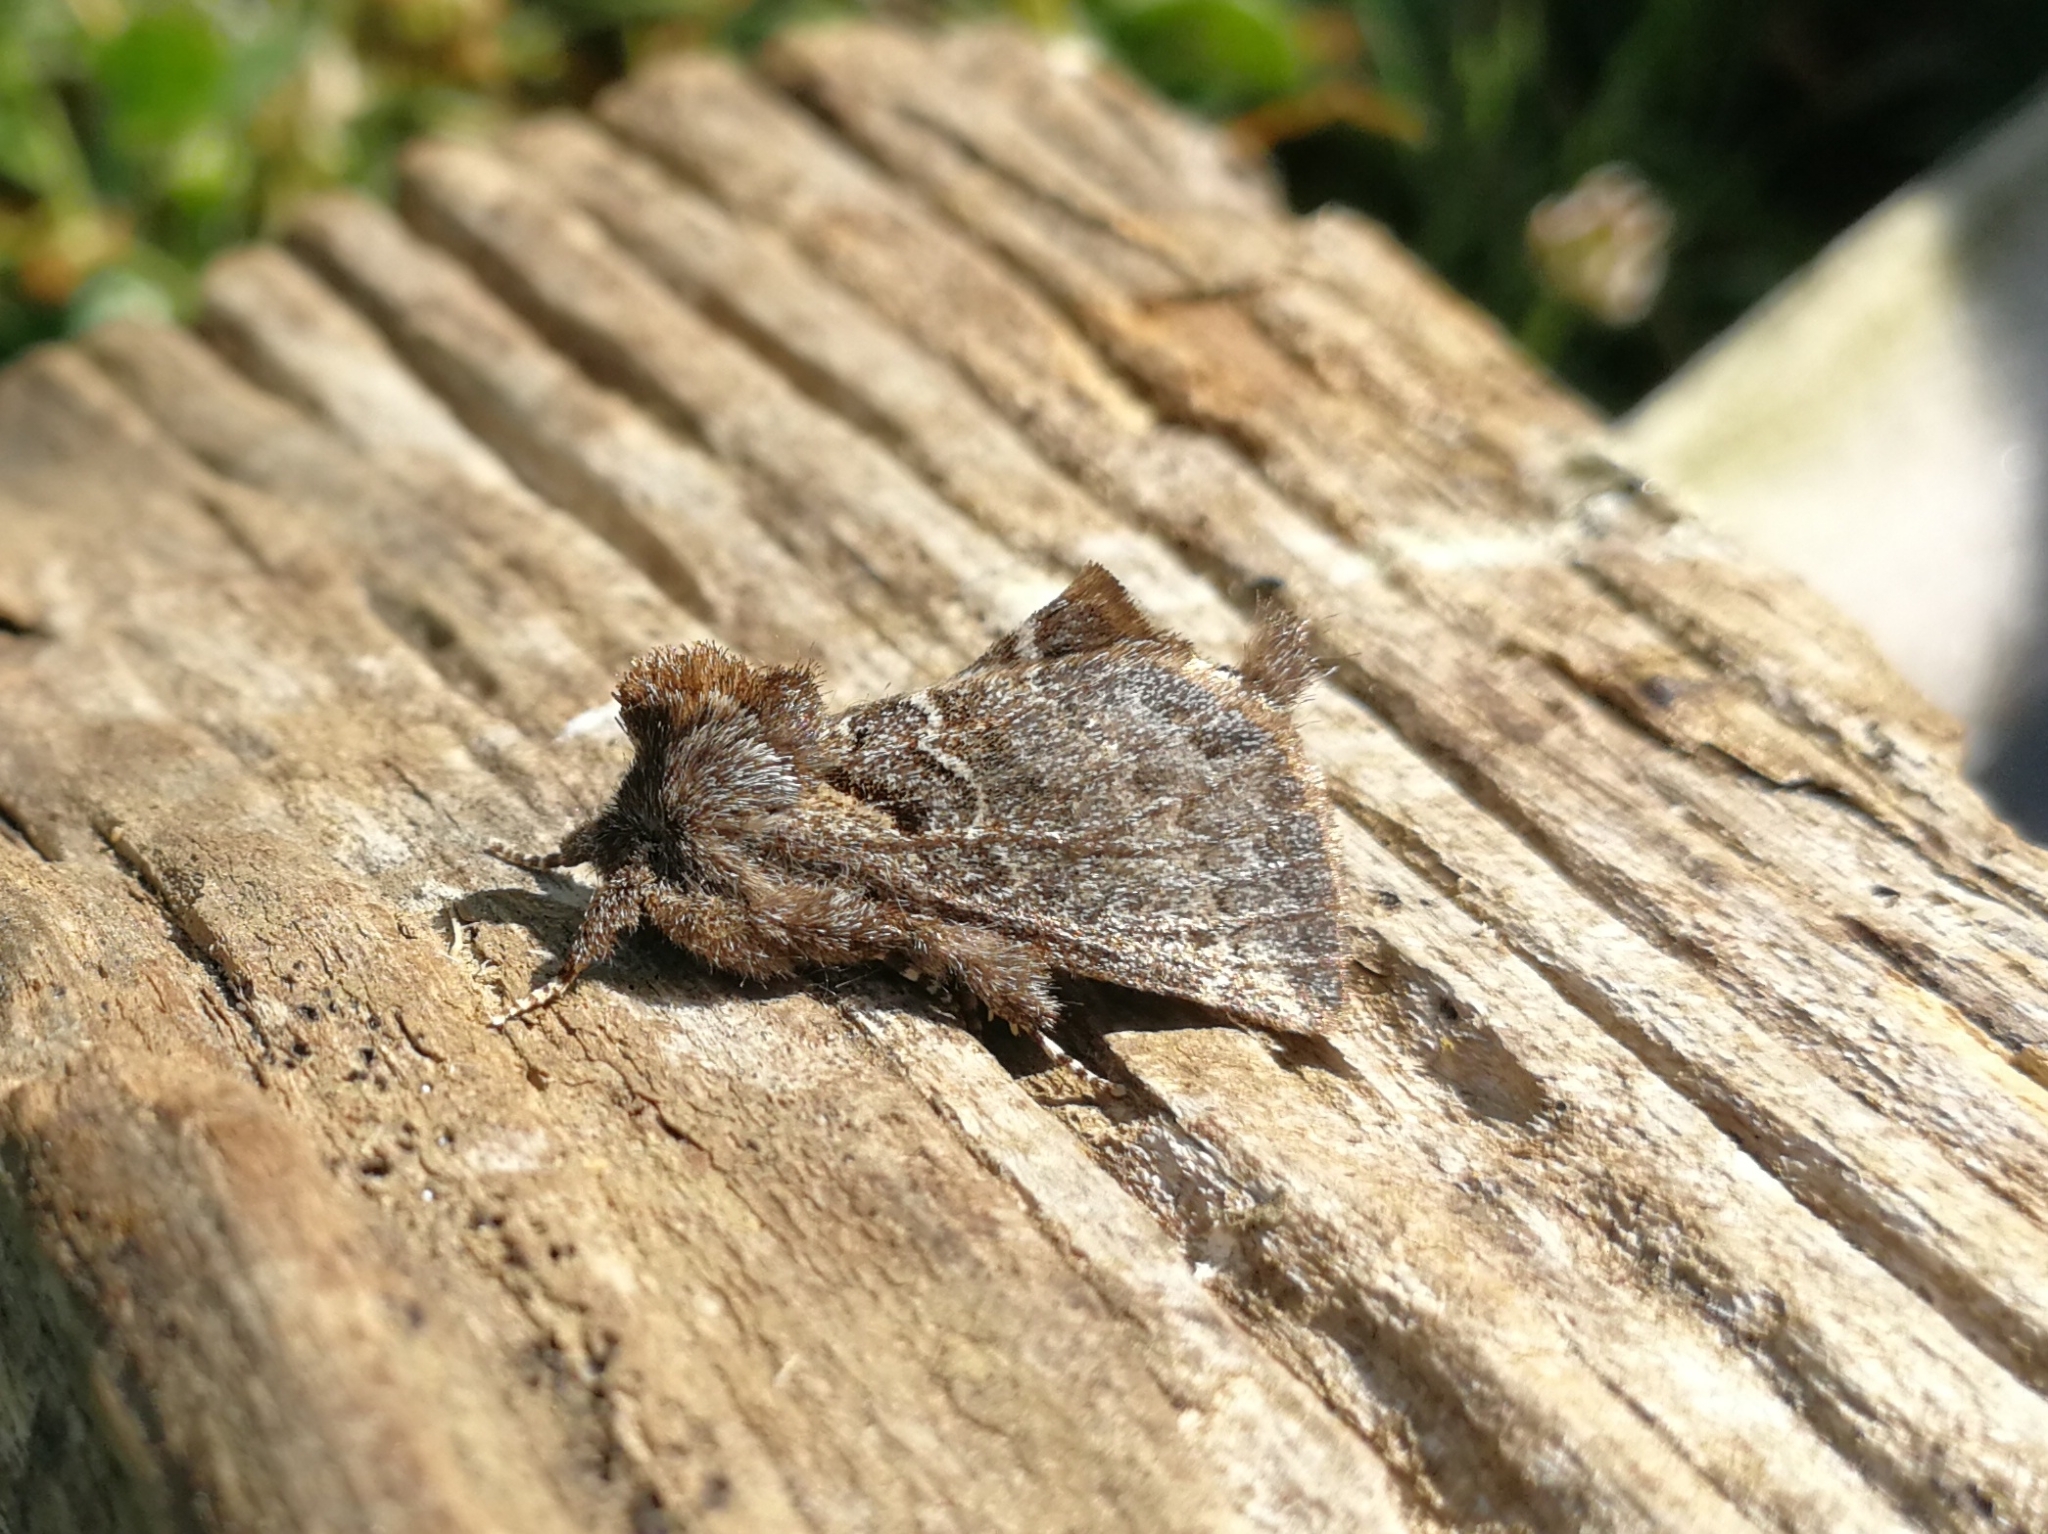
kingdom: Animalia
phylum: Arthropoda
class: Insecta
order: Lepidoptera
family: Notodontidae
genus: Rhegmatophila
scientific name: Rhegmatophila alpina
